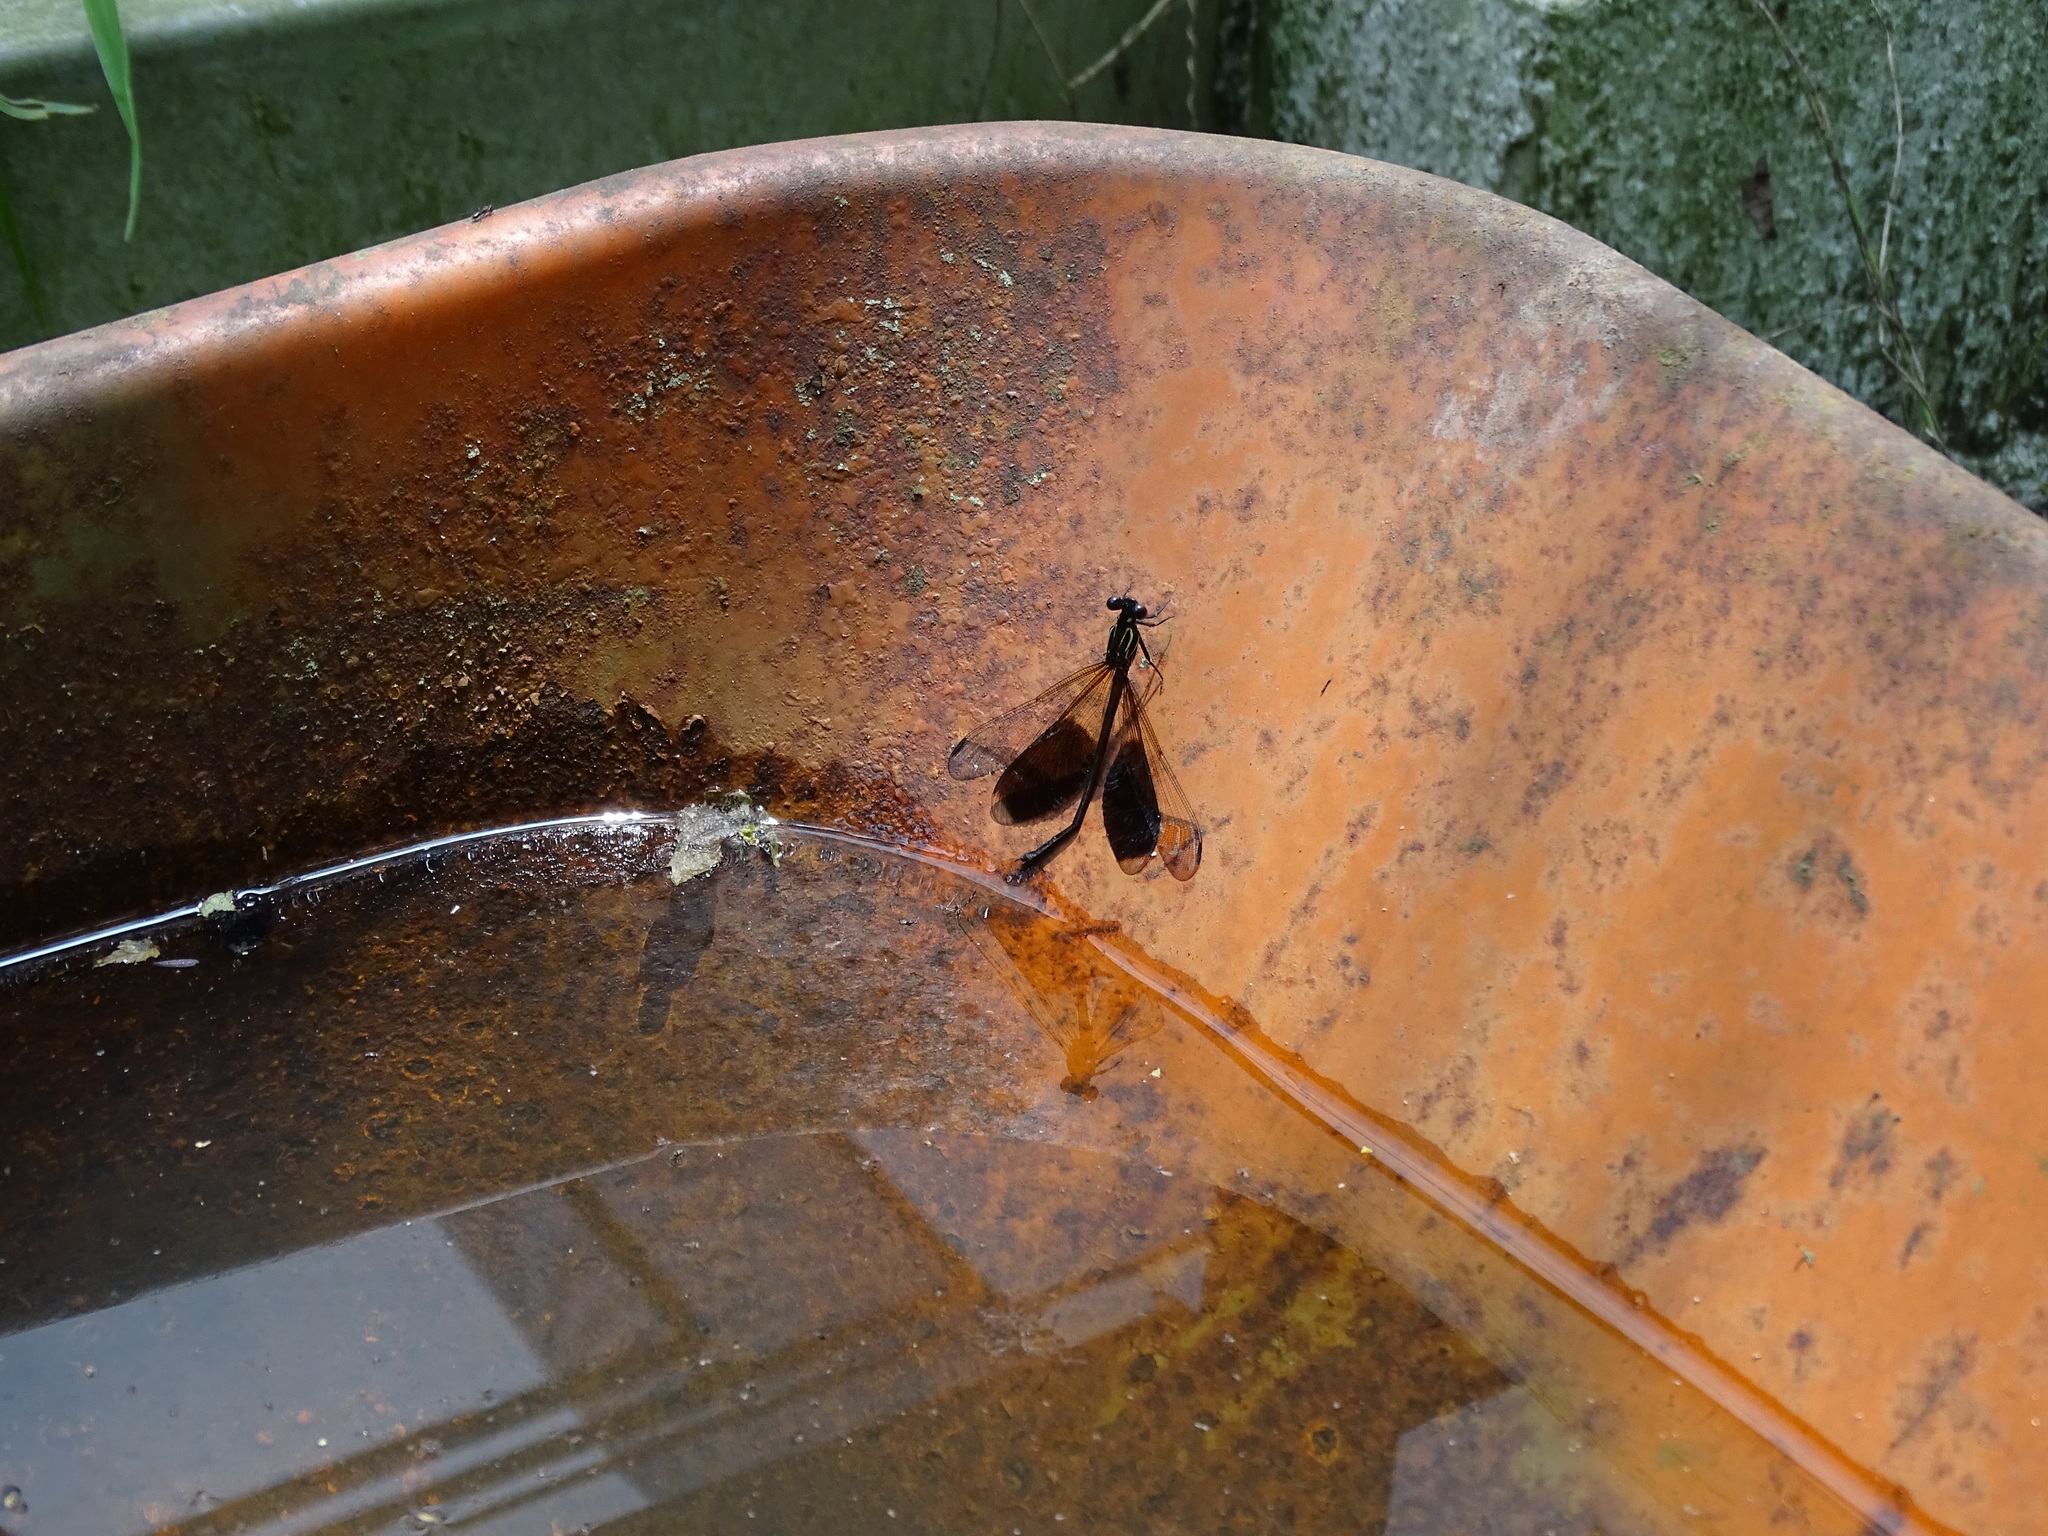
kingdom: Animalia
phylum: Arthropoda
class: Insecta
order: Odonata
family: Euphaeidae
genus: Euphaea
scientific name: Euphaea formosa
